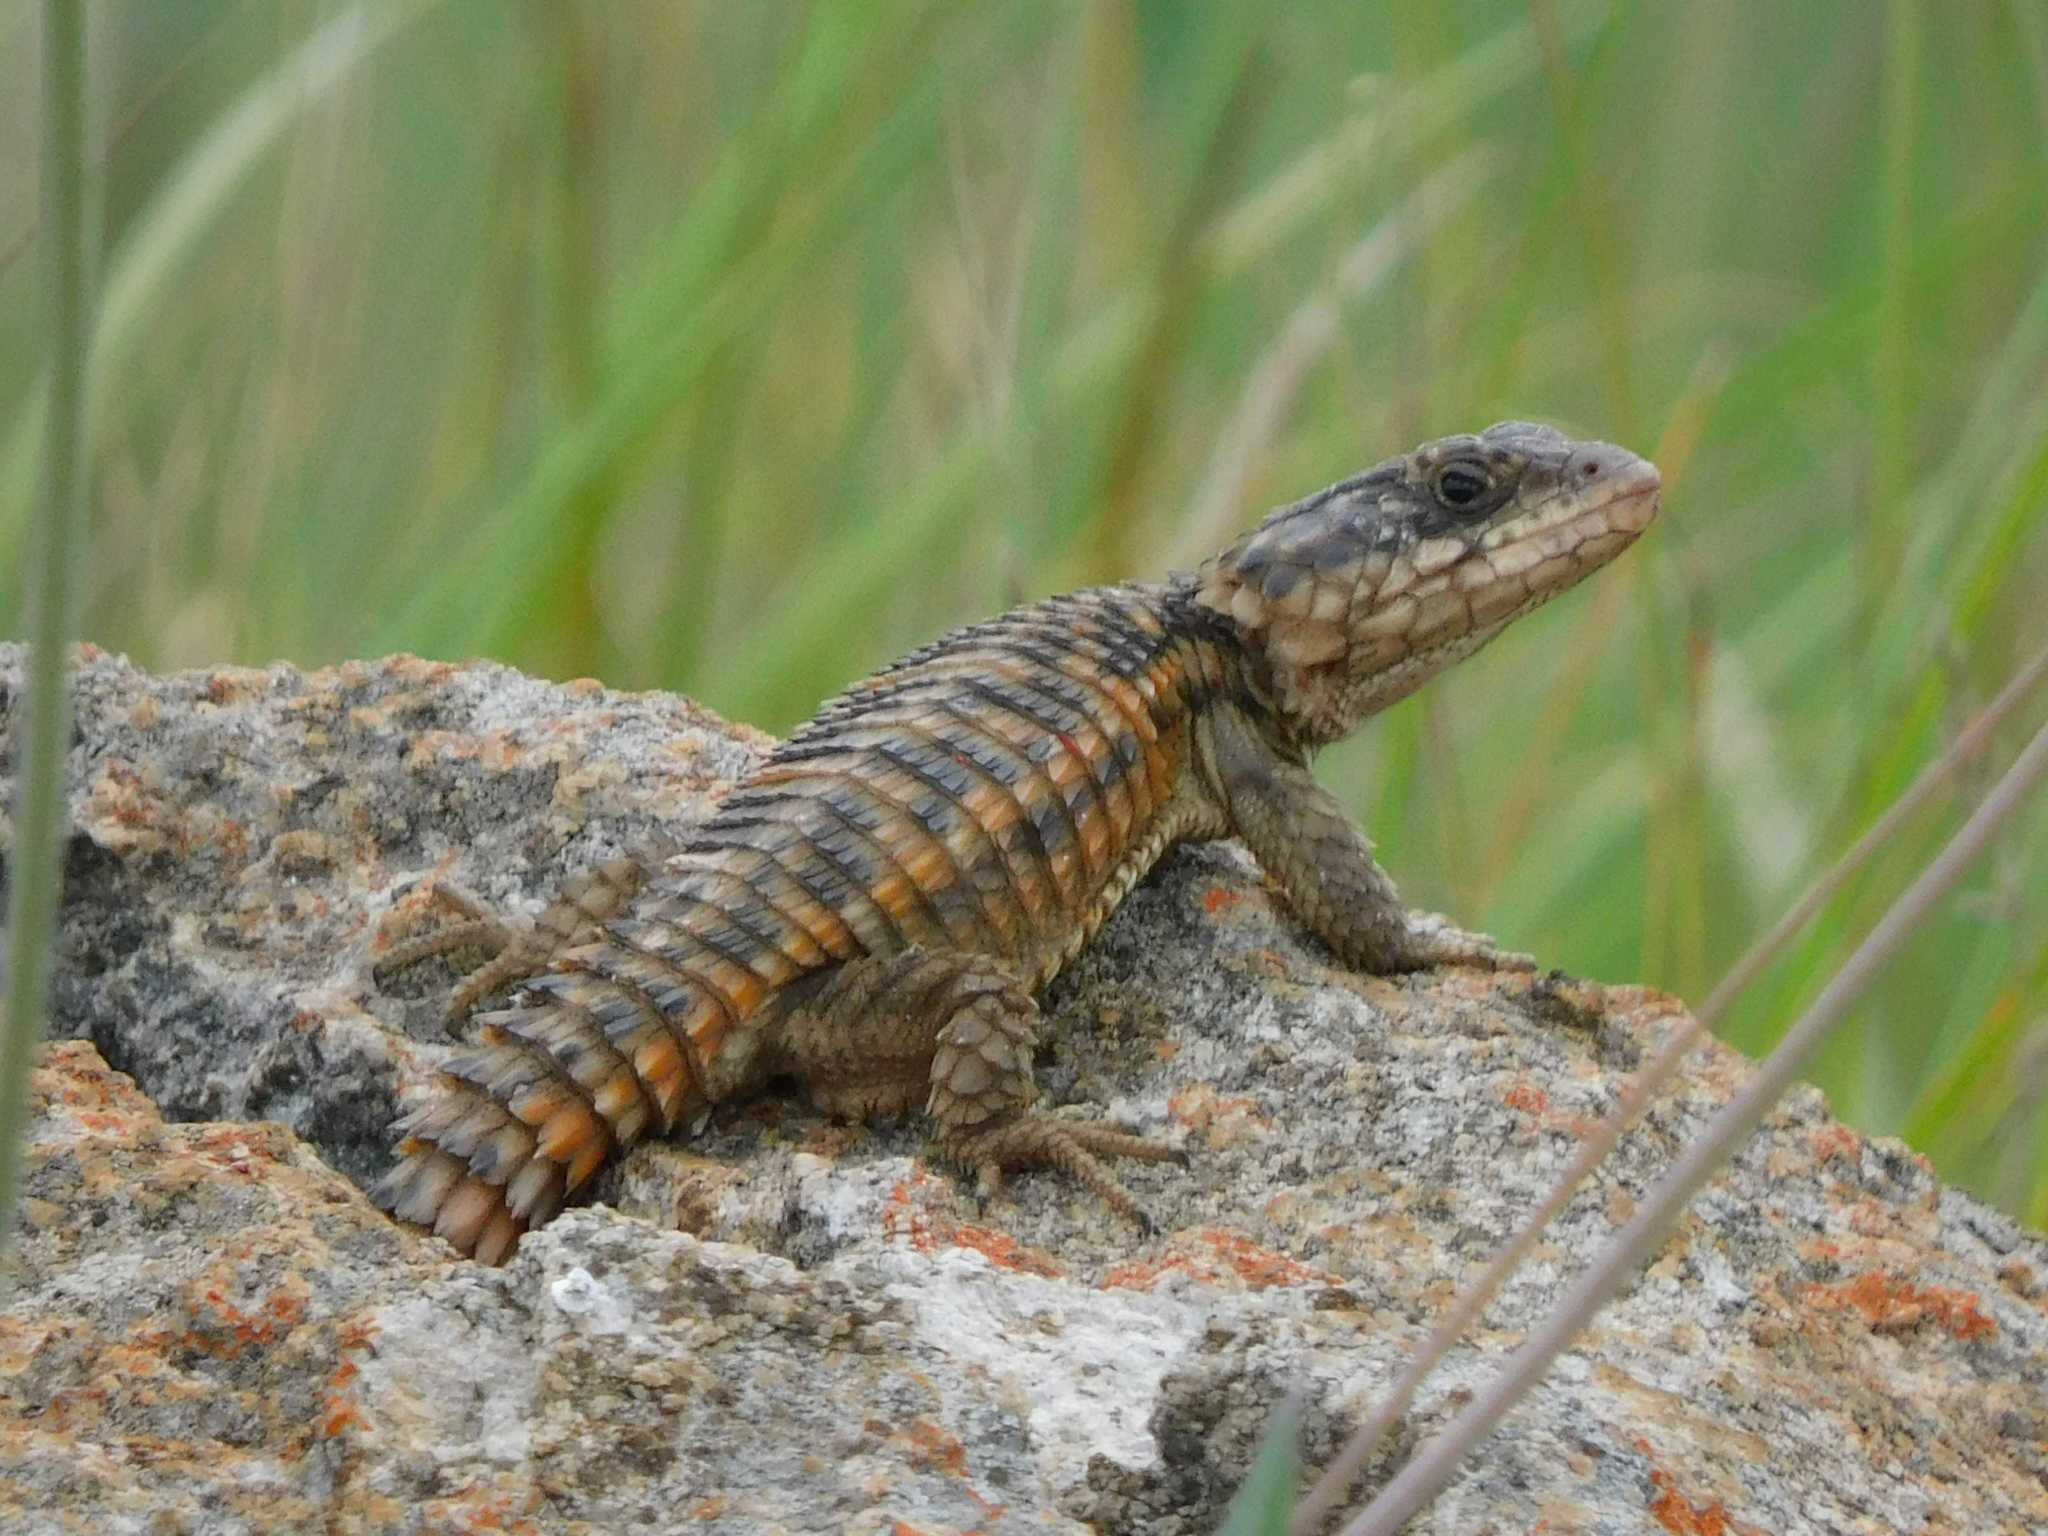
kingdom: Animalia
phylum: Chordata
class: Squamata
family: Cordylidae
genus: Cordylus
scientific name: Cordylus vittifer
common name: Common girdled lizard
